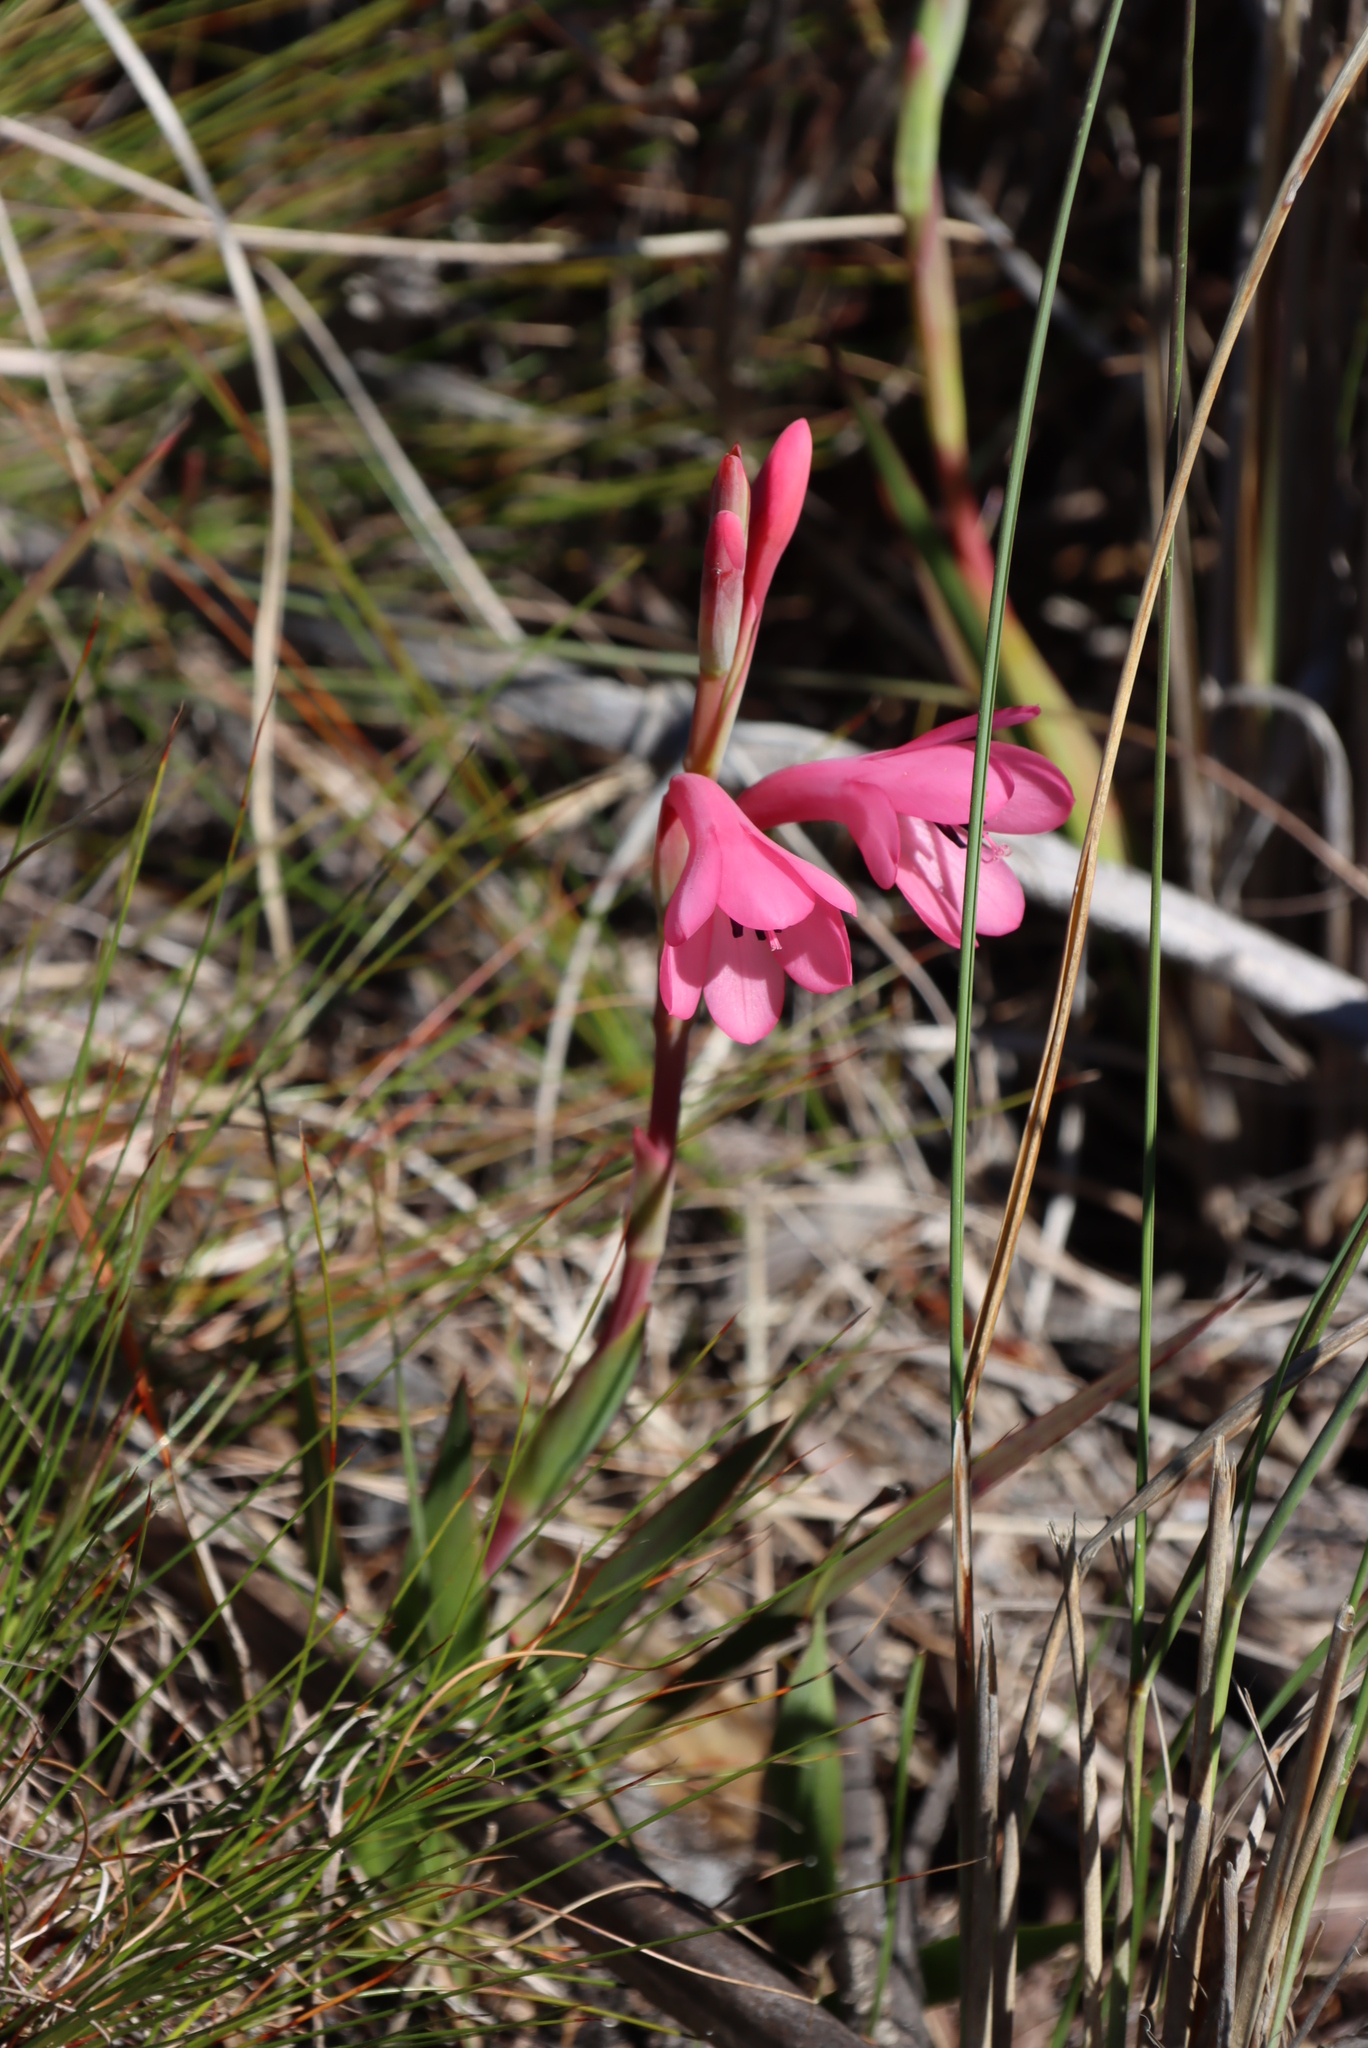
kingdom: Plantae
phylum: Tracheophyta
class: Liliopsida
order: Asparagales
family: Iridaceae
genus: Watsonia
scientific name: Watsonia coccinea
